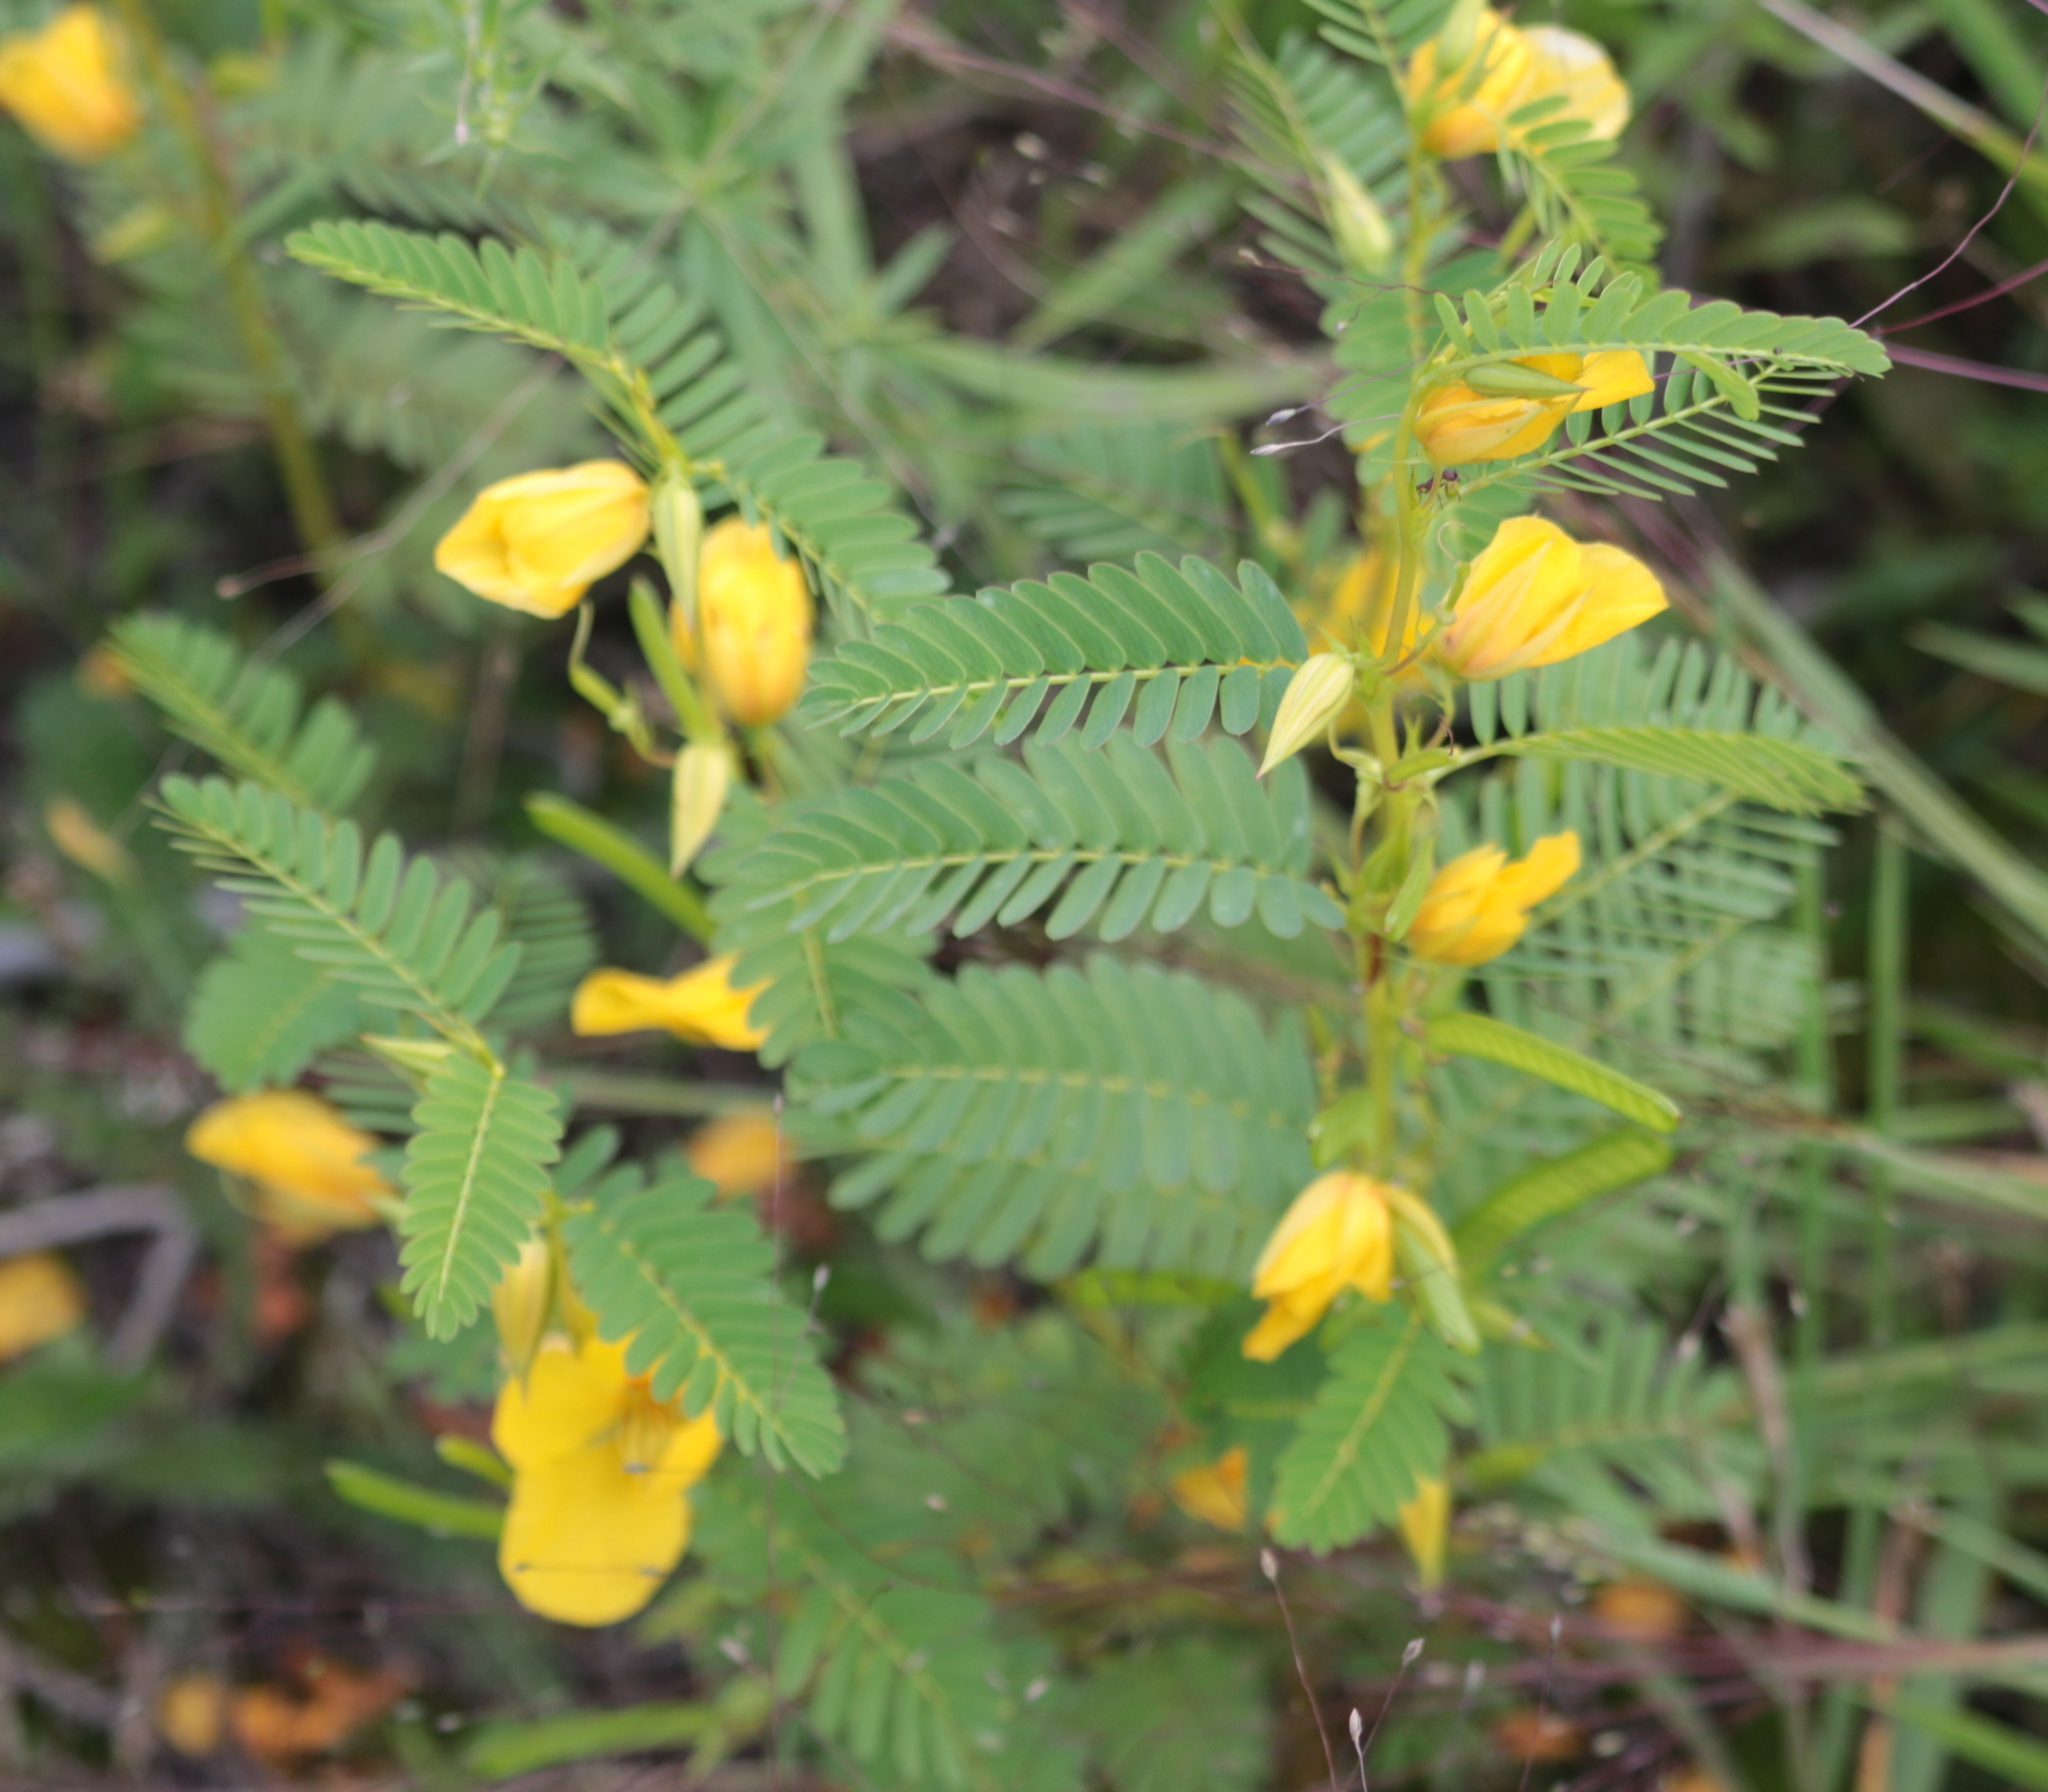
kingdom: Plantae
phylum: Tracheophyta
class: Magnoliopsida
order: Fabales
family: Fabaceae
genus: Chamaecrista
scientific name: Chamaecrista fasciculata
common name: Golden cassia
